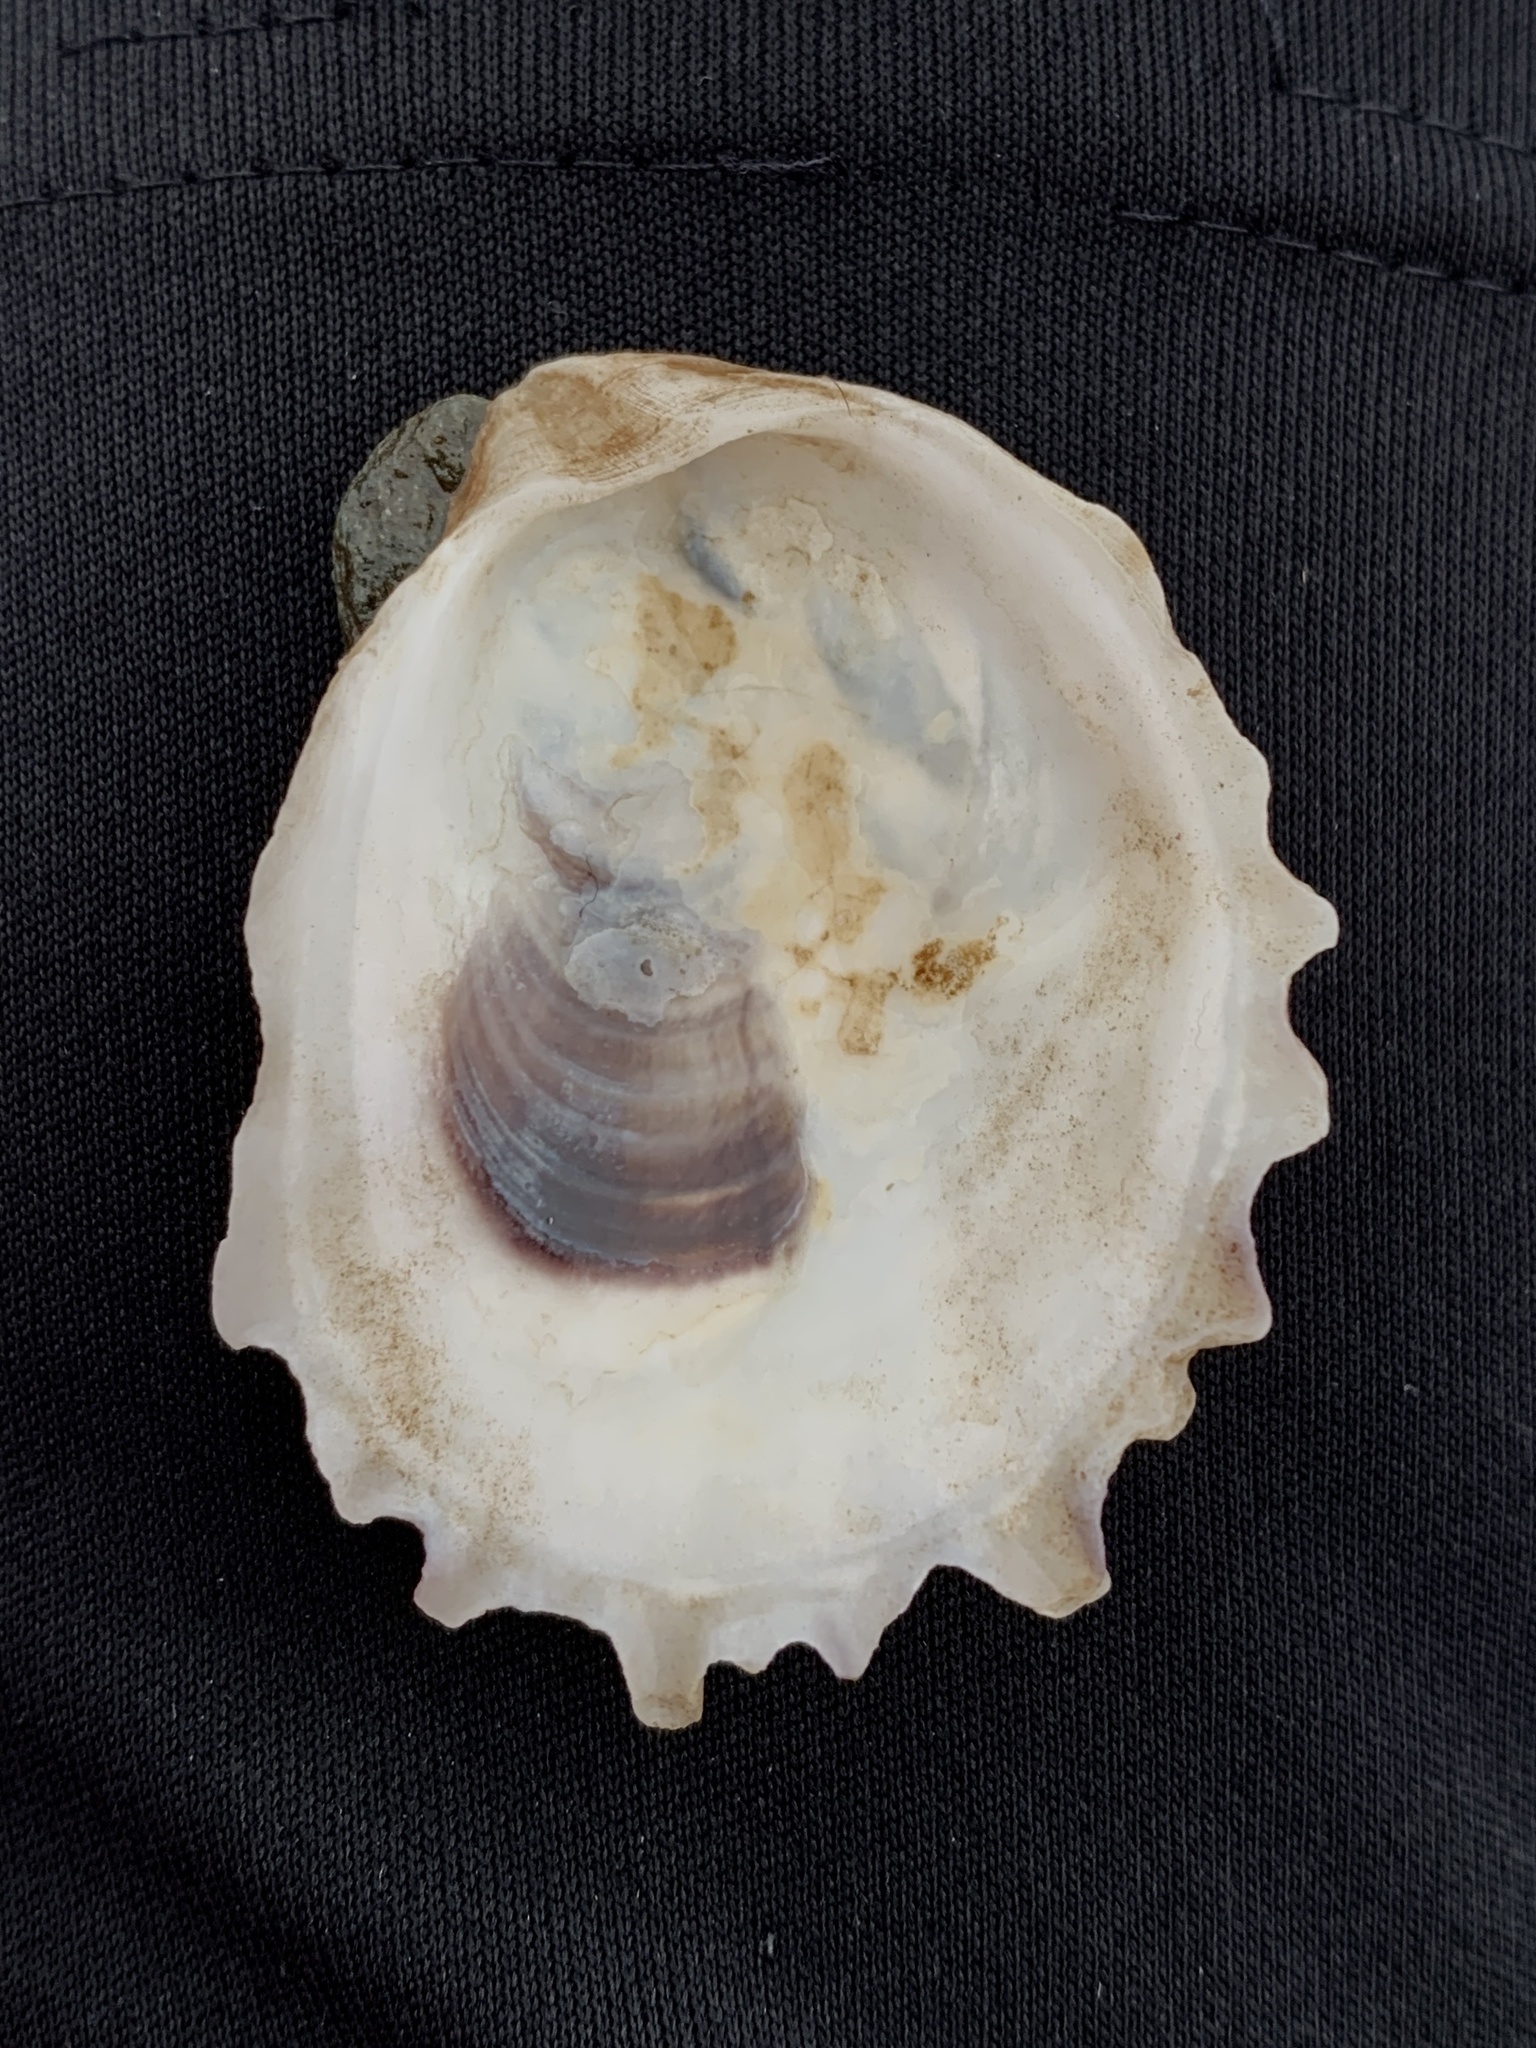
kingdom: Animalia
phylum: Mollusca
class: Bivalvia
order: Ostreida
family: Ostreidae
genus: Crassostrea
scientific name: Crassostrea virginica
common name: American oyster
